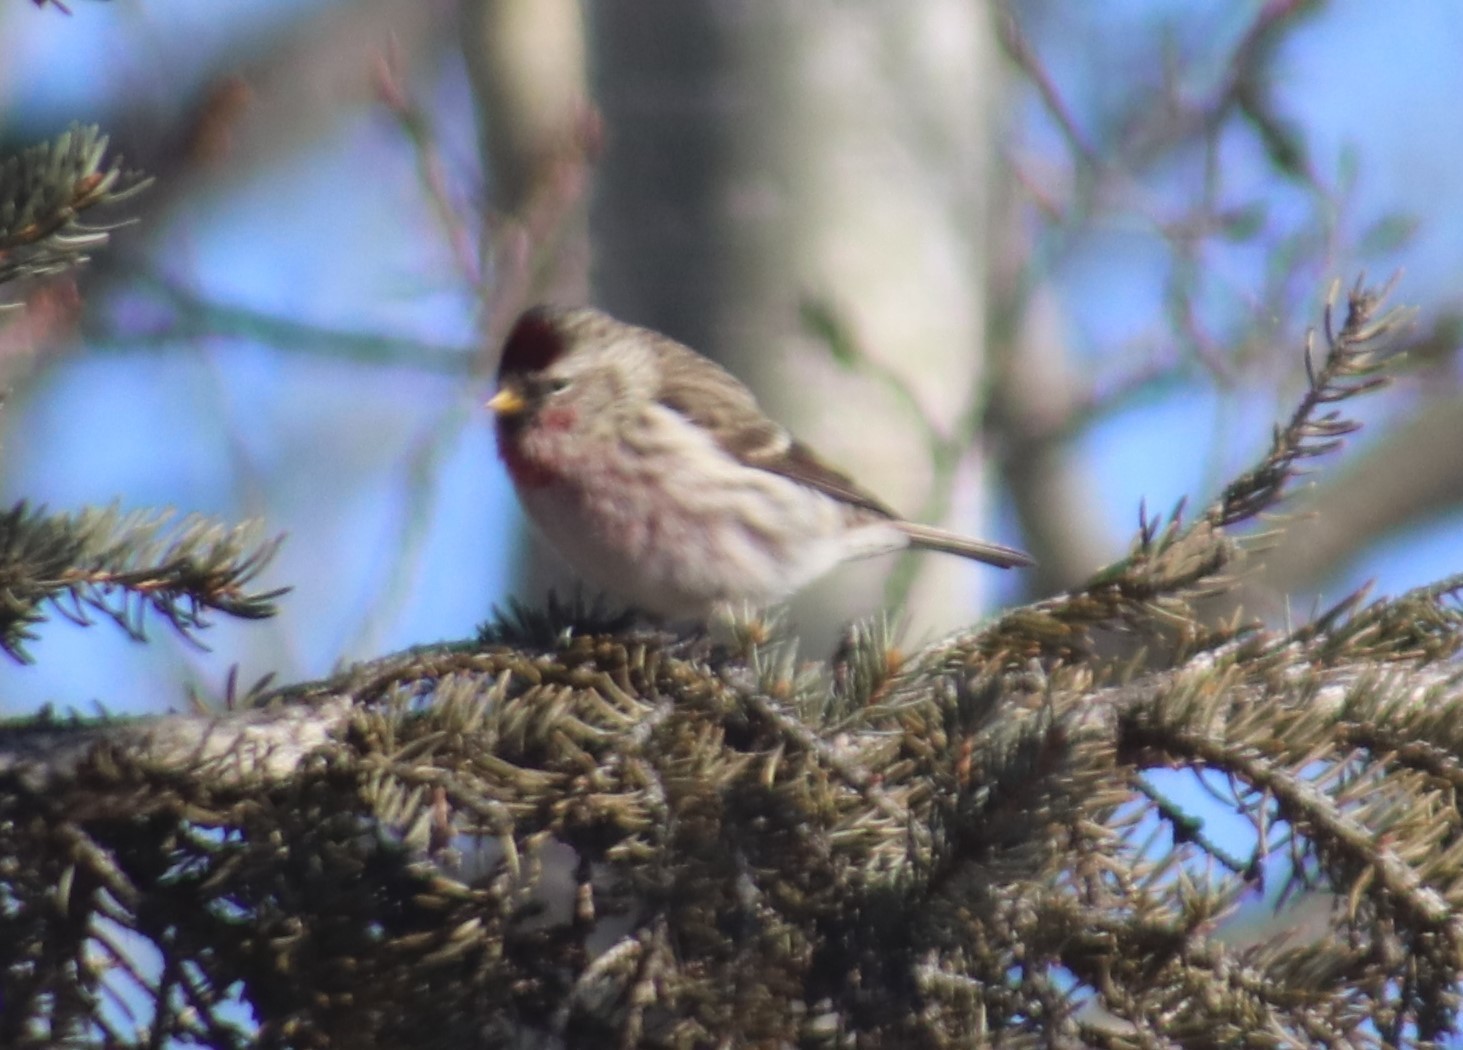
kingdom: Animalia
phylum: Chordata
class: Aves
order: Passeriformes
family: Fringillidae
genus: Acanthis
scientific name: Acanthis flammea
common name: Common redpoll
